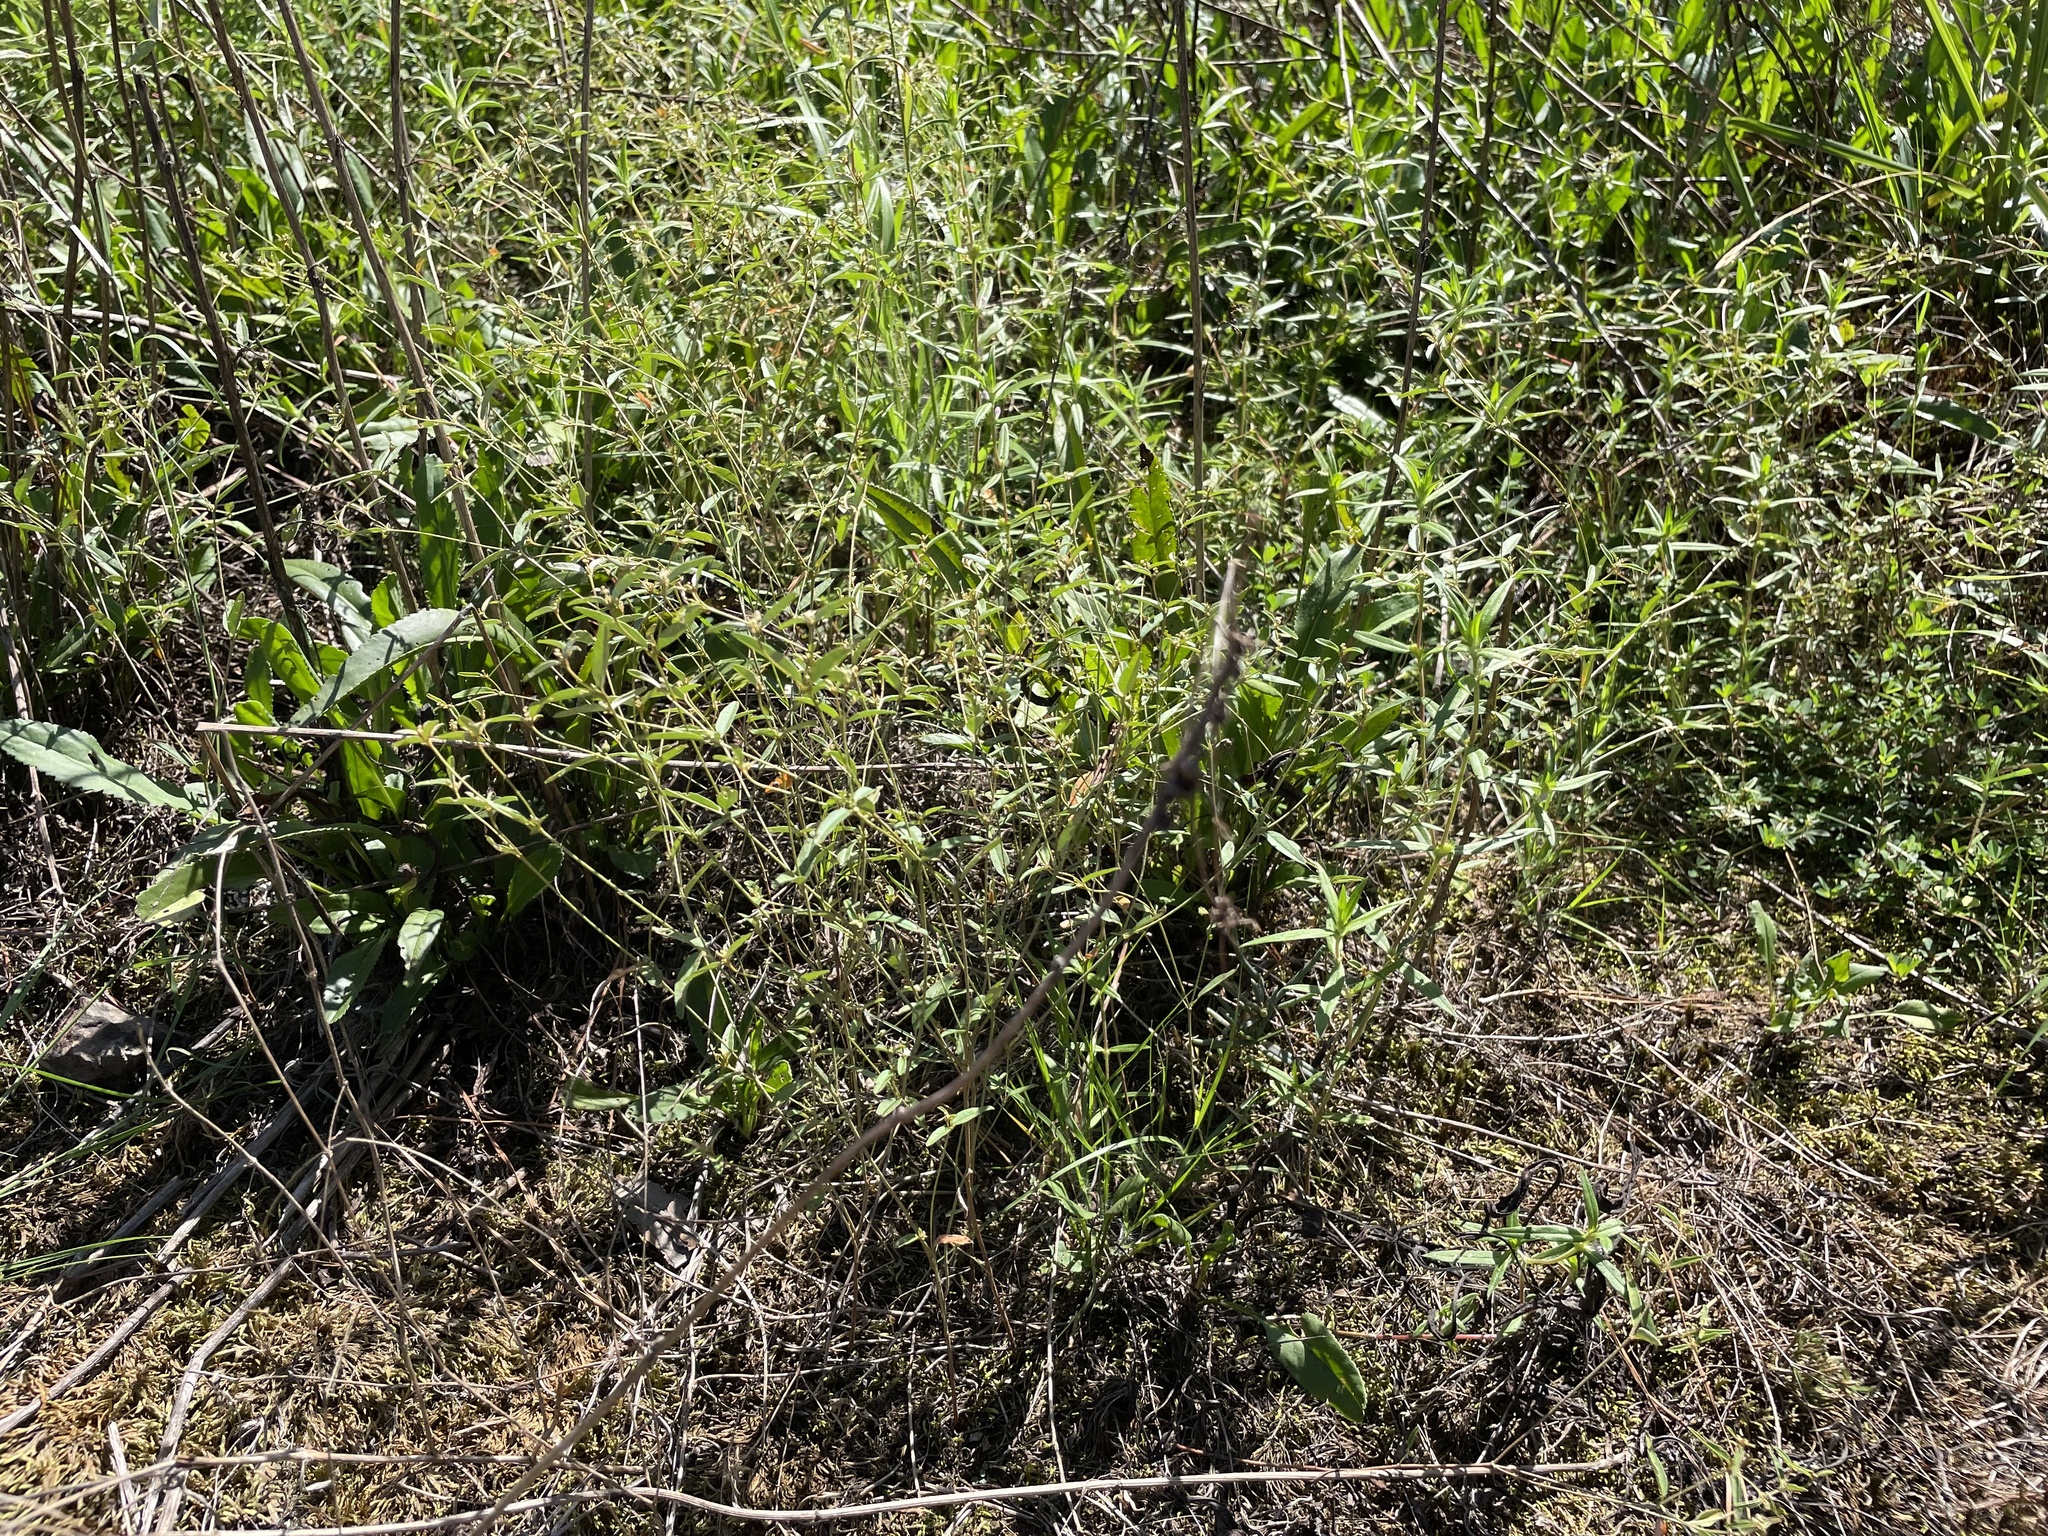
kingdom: Plantae
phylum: Tracheophyta
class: Magnoliopsida
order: Malpighiales
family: Euphorbiaceae
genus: Croton
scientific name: Croton michauxii
